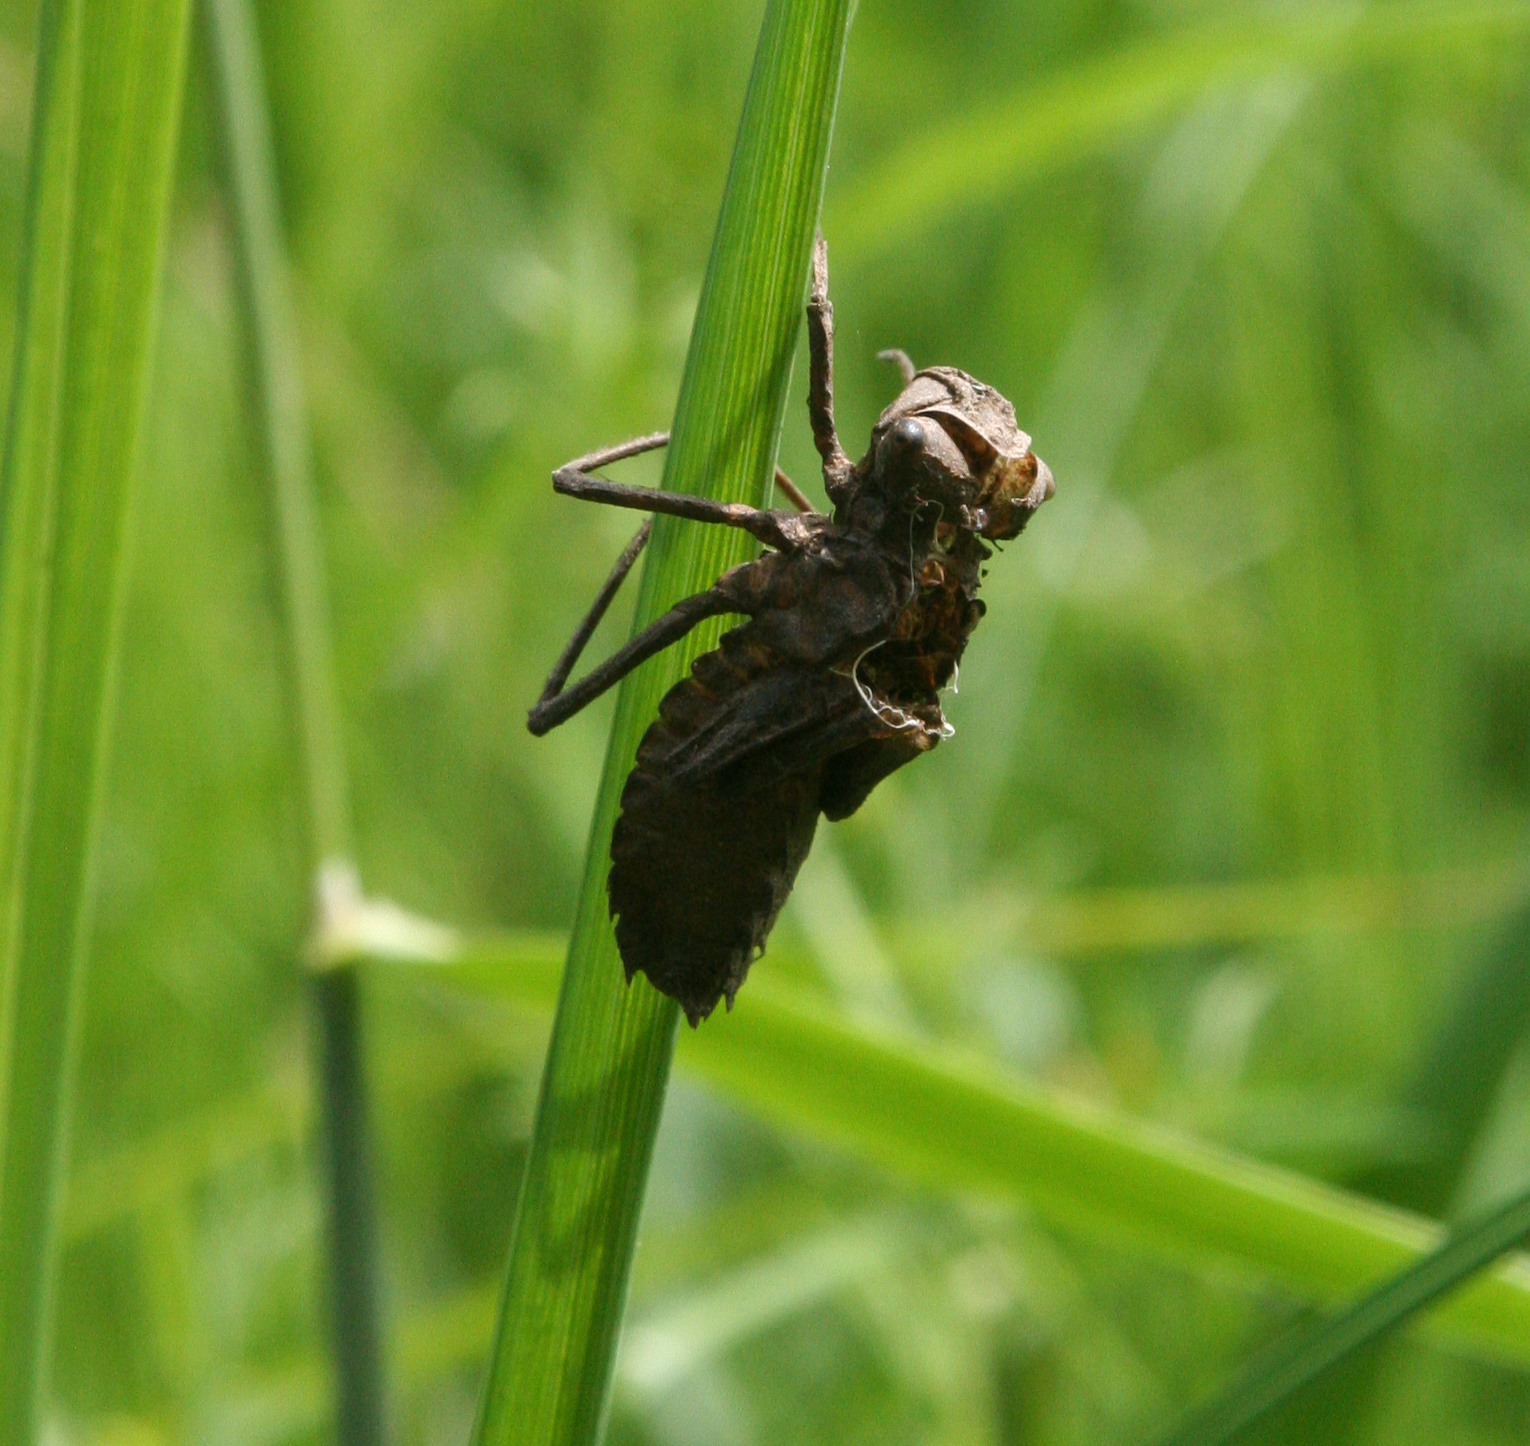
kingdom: Animalia
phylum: Arthropoda
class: Insecta
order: Odonata
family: Corduliidae
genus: Somatochlora
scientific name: Somatochlora exuberata
